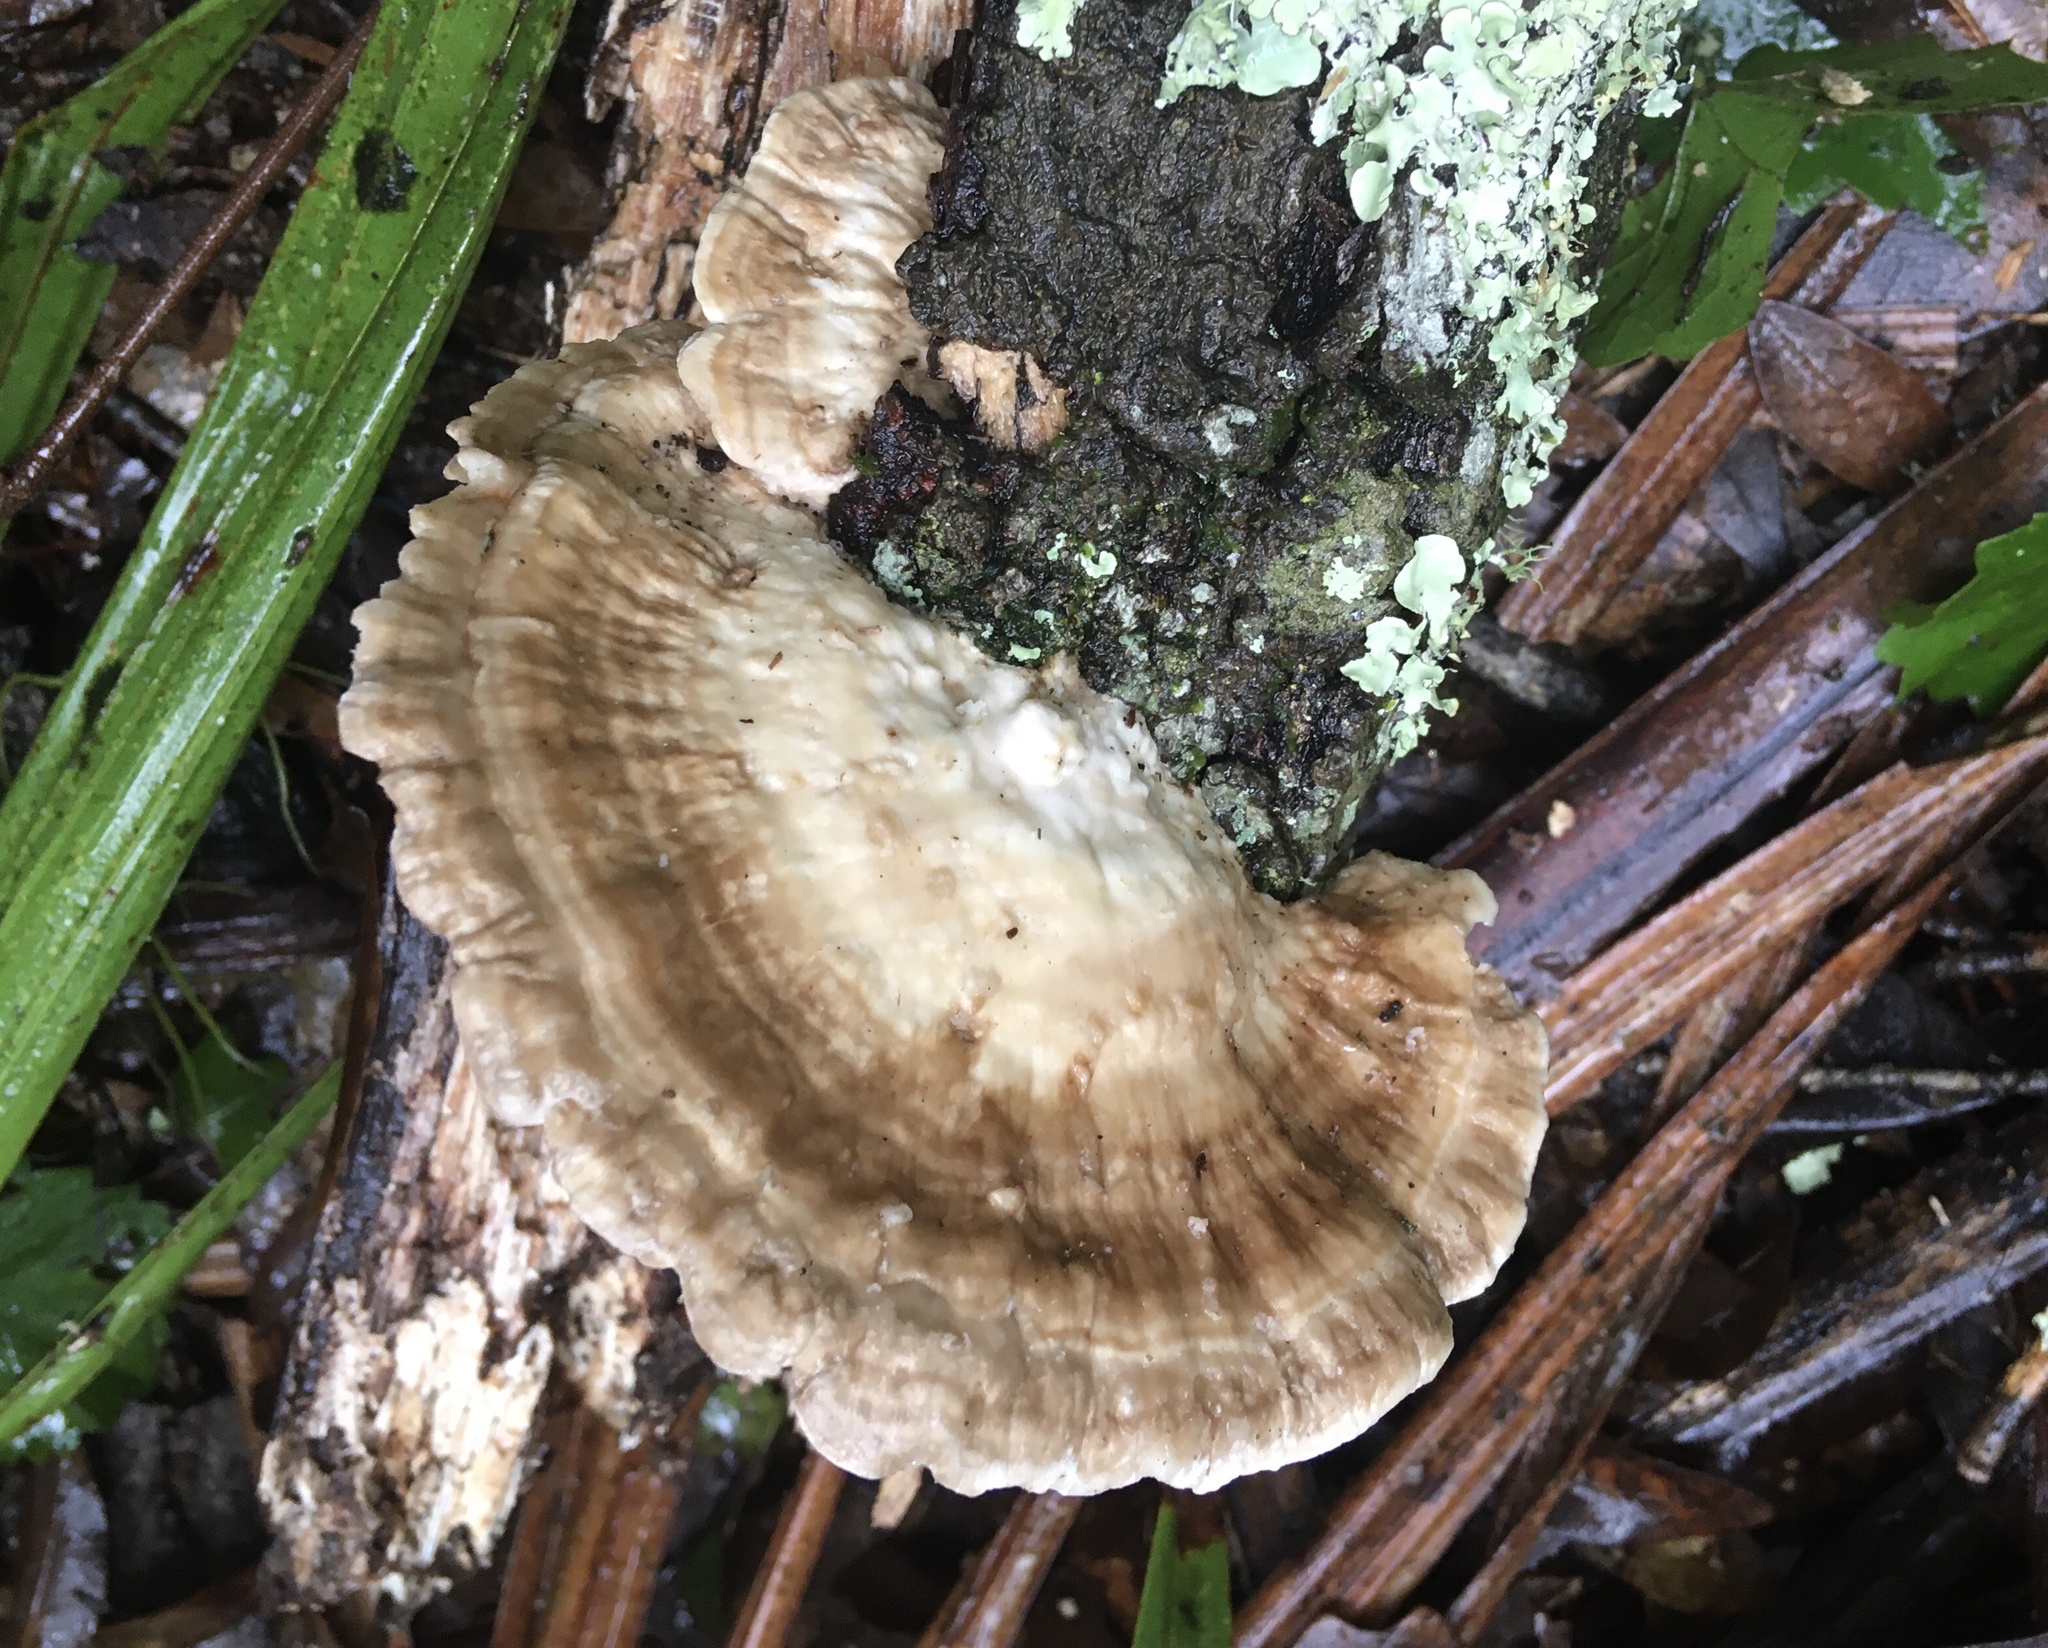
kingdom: Fungi
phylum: Basidiomycota
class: Agaricomycetes
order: Polyporales
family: Polyporaceae
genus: Trametes
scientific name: Trametes lactinea
